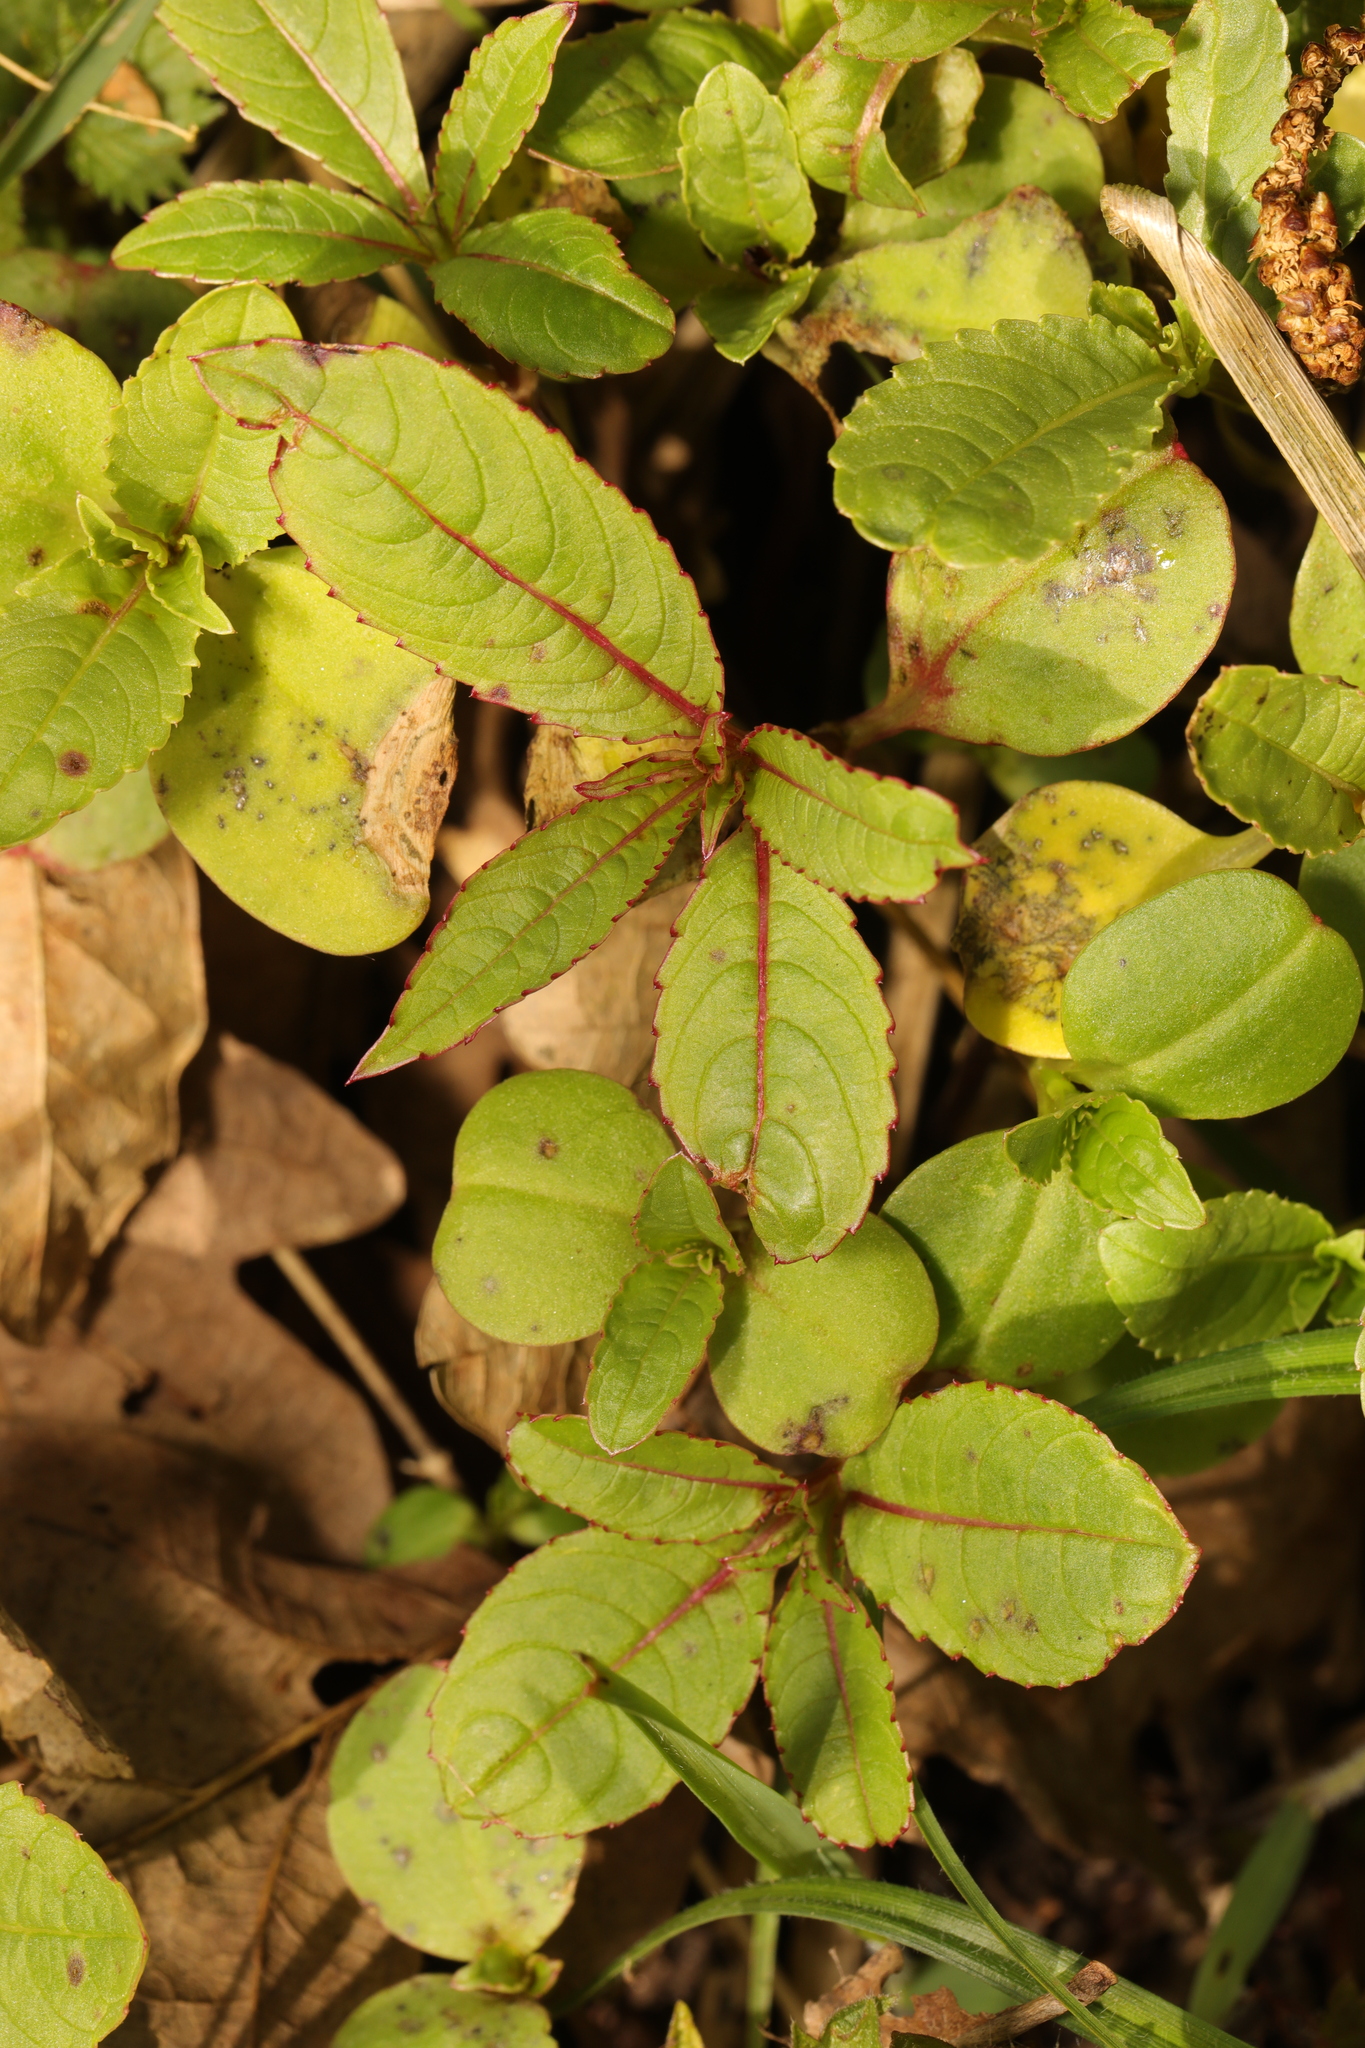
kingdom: Plantae
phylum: Tracheophyta
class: Magnoliopsida
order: Ericales
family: Balsaminaceae
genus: Impatiens
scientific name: Impatiens glandulifera
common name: Himalayan balsam
